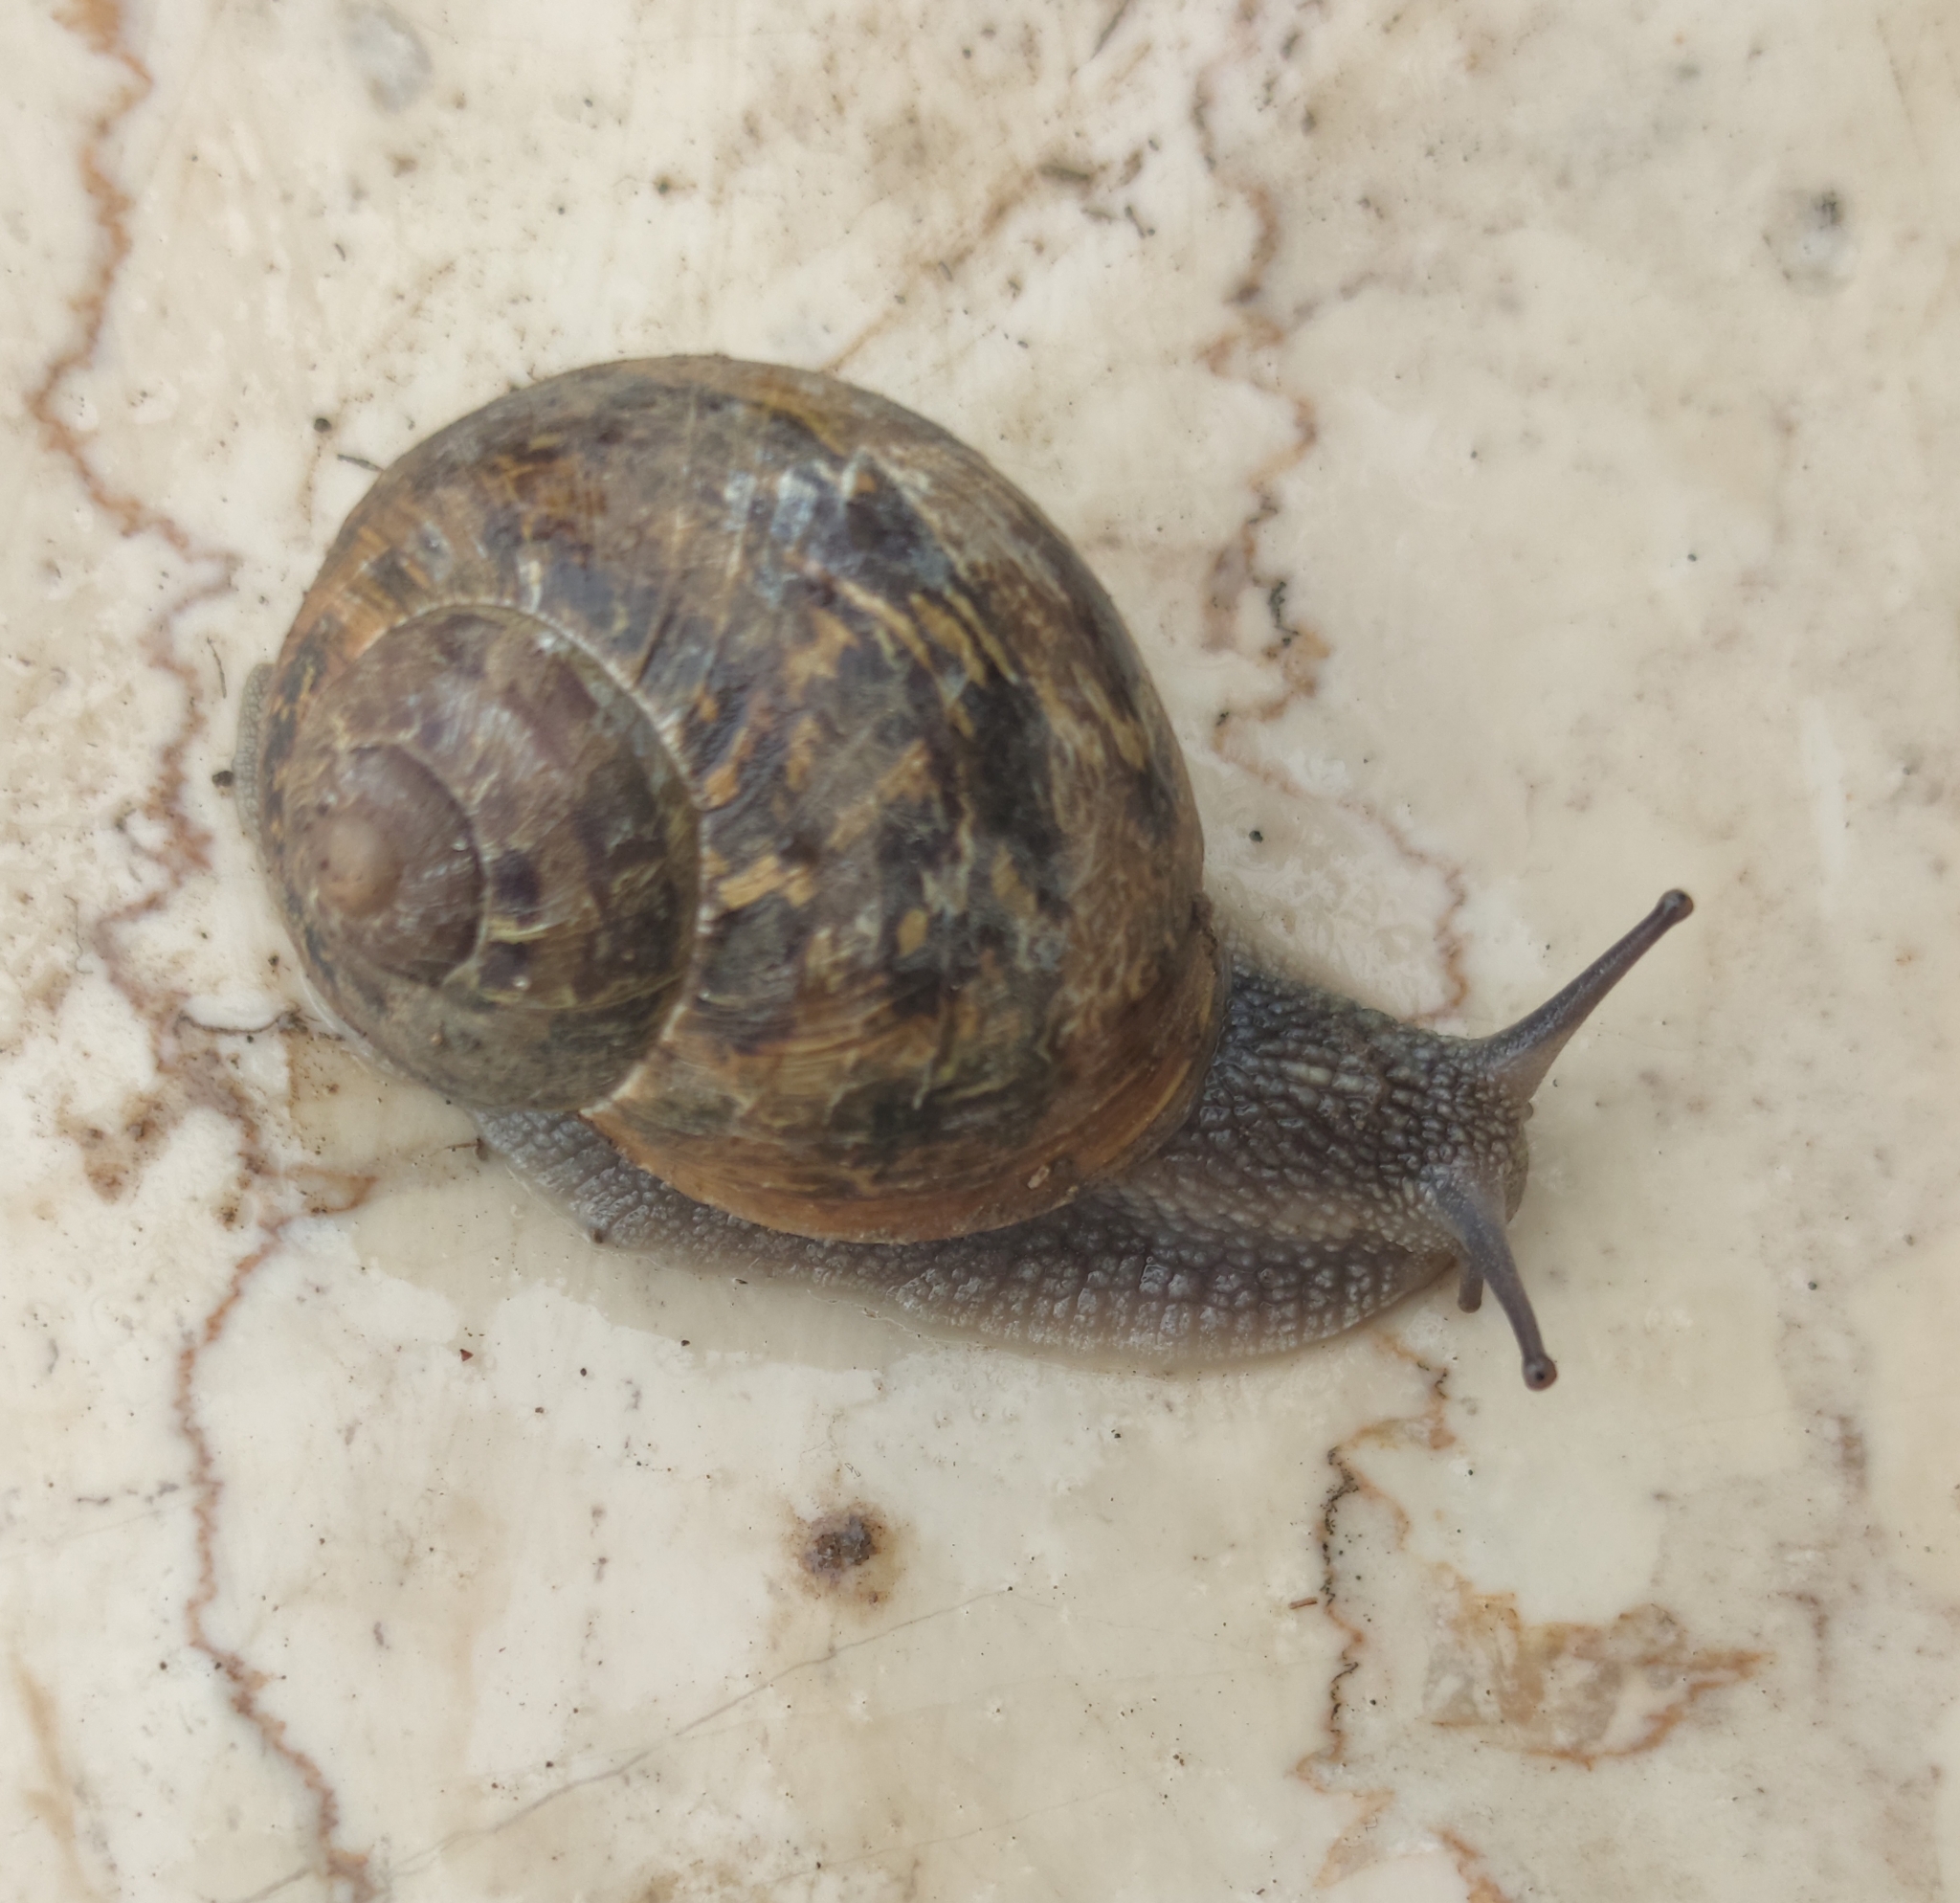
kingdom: Animalia
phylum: Mollusca
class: Gastropoda
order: Stylommatophora
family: Helicidae
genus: Cornu
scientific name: Cornu aspersum
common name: Brown garden snail
